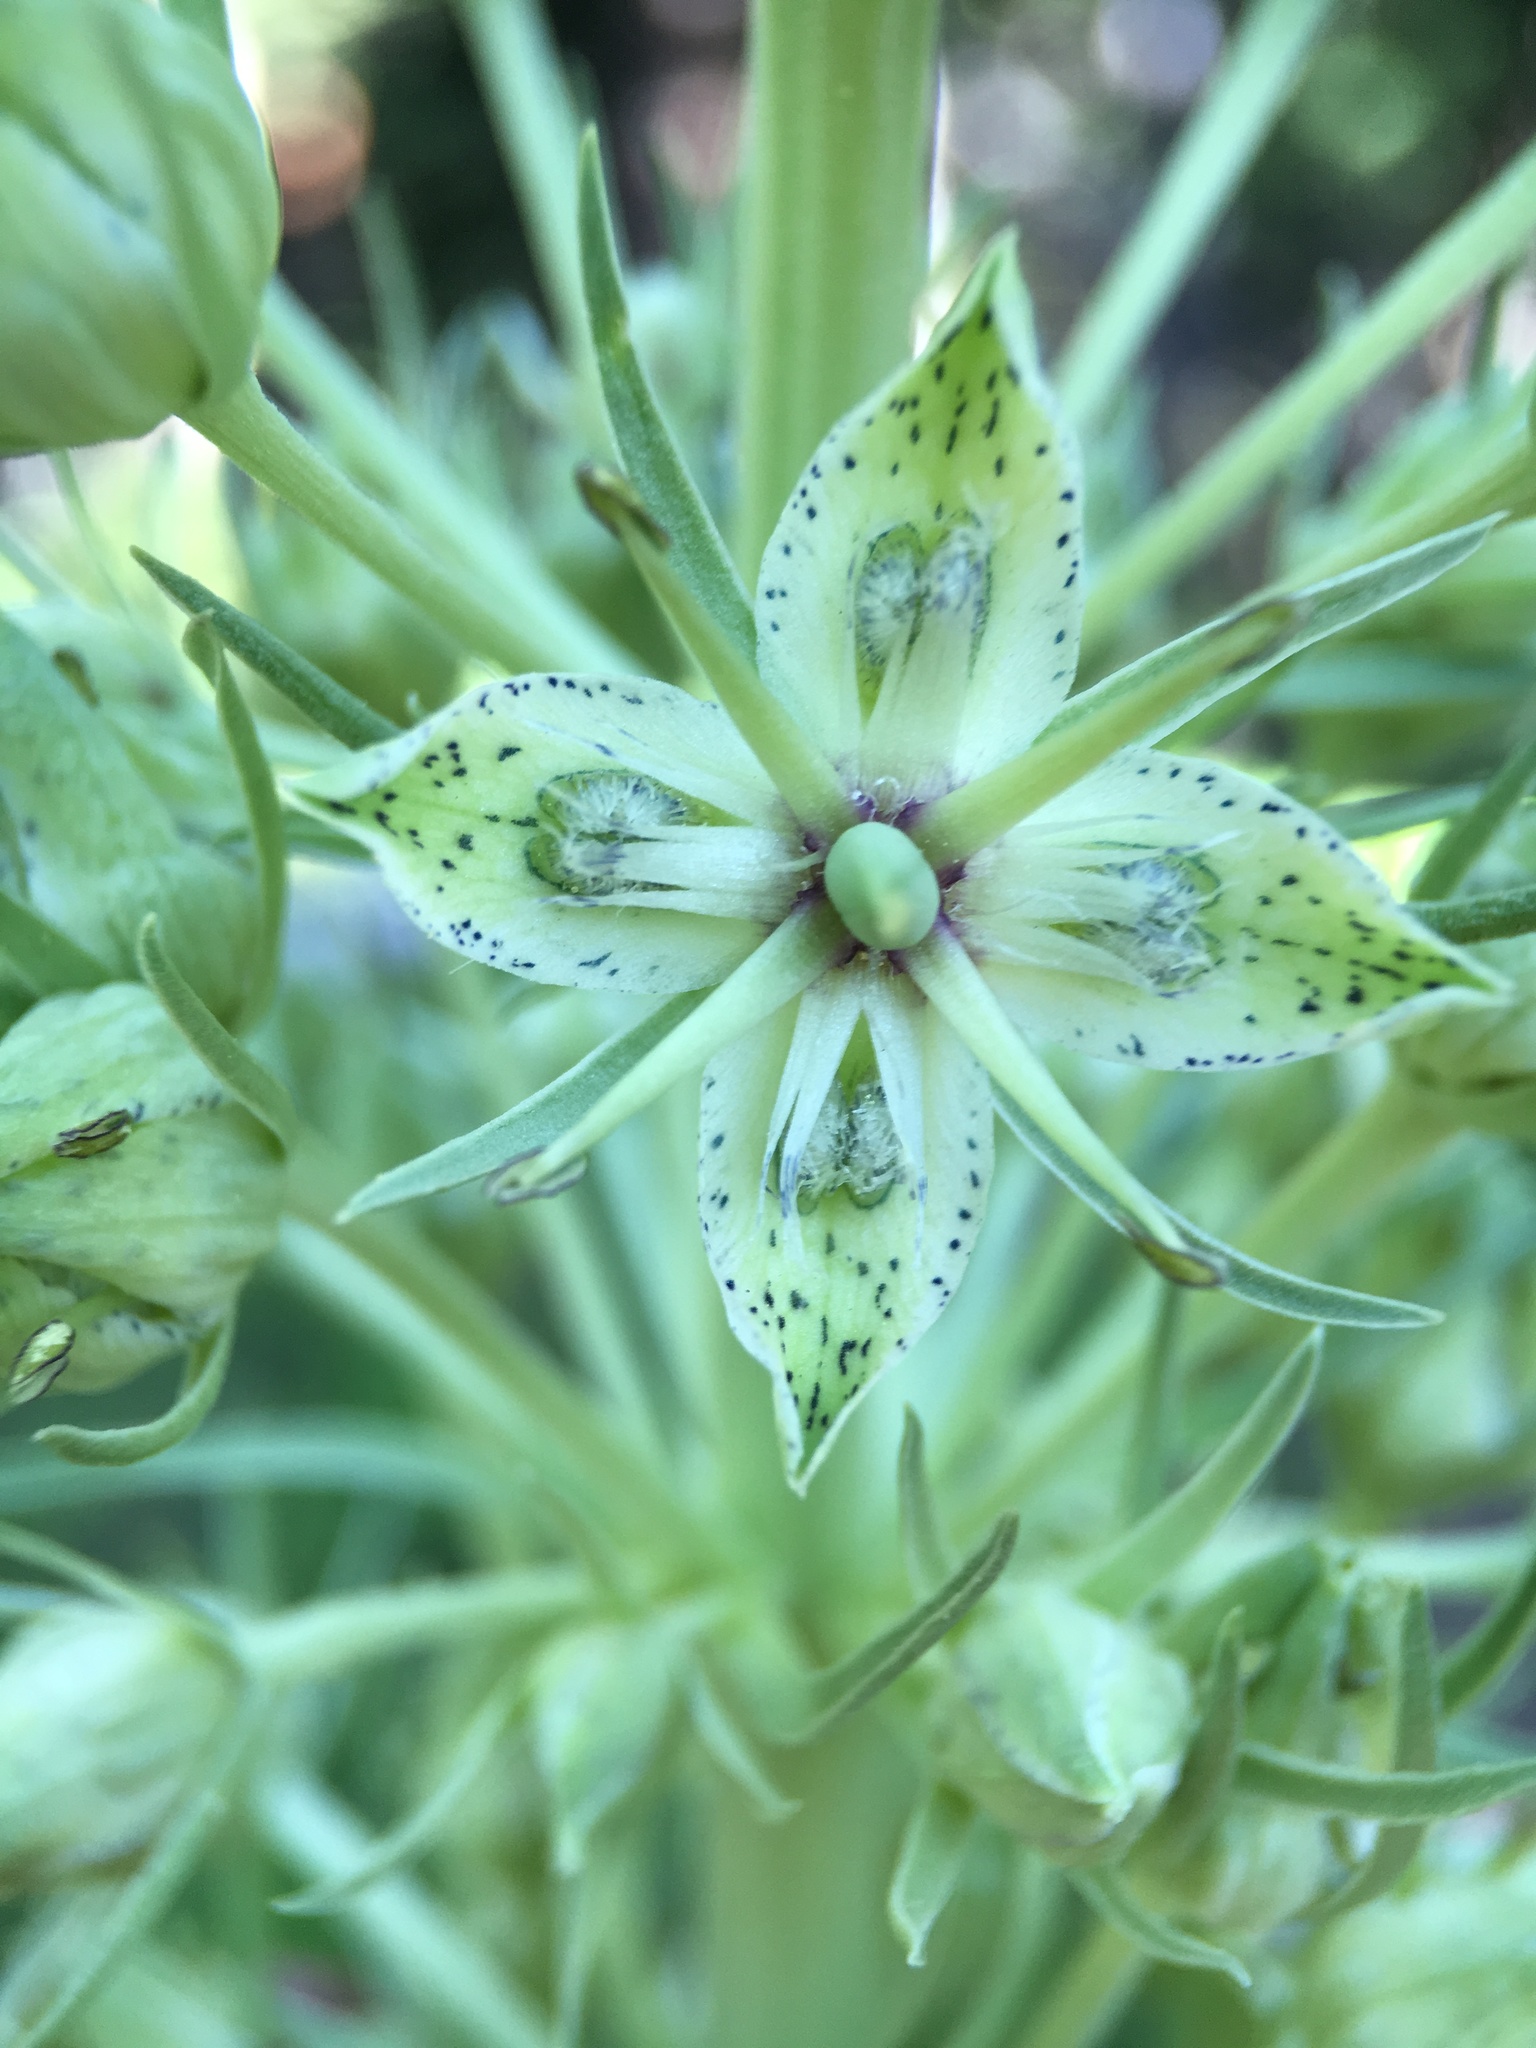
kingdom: Plantae
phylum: Tracheophyta
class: Magnoliopsida
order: Gentianales
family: Gentianaceae
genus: Frasera
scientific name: Frasera speciosa
